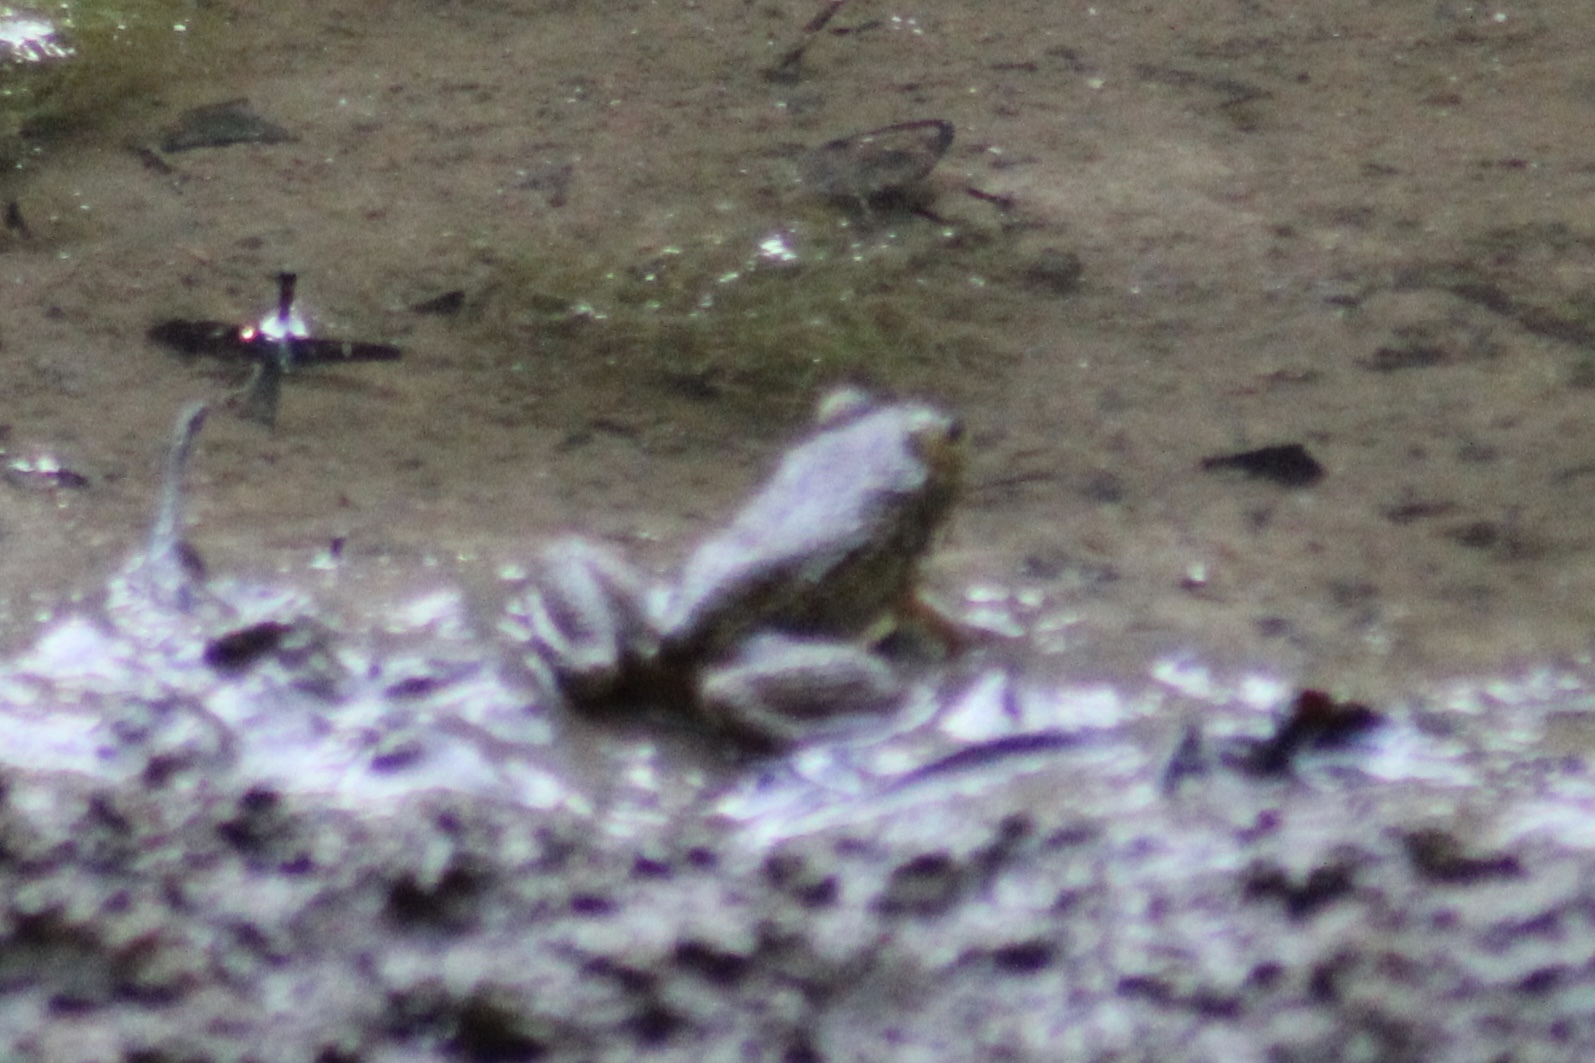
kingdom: Animalia
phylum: Chordata
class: Amphibia
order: Anura
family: Ranidae
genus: Lithobates
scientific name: Lithobates catesbeianus
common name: American bullfrog
